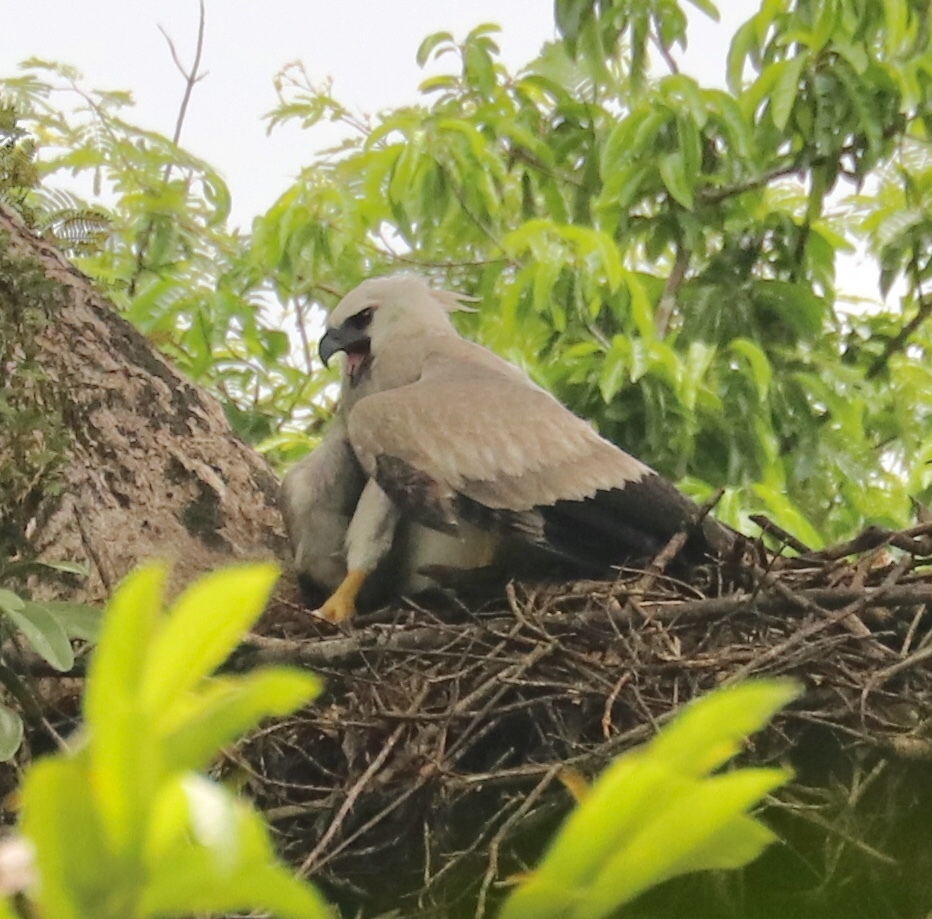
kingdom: Animalia
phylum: Chordata
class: Aves
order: Accipitriformes
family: Accipitridae
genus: Harpia
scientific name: Harpia harpyja
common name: Harpy eagle
